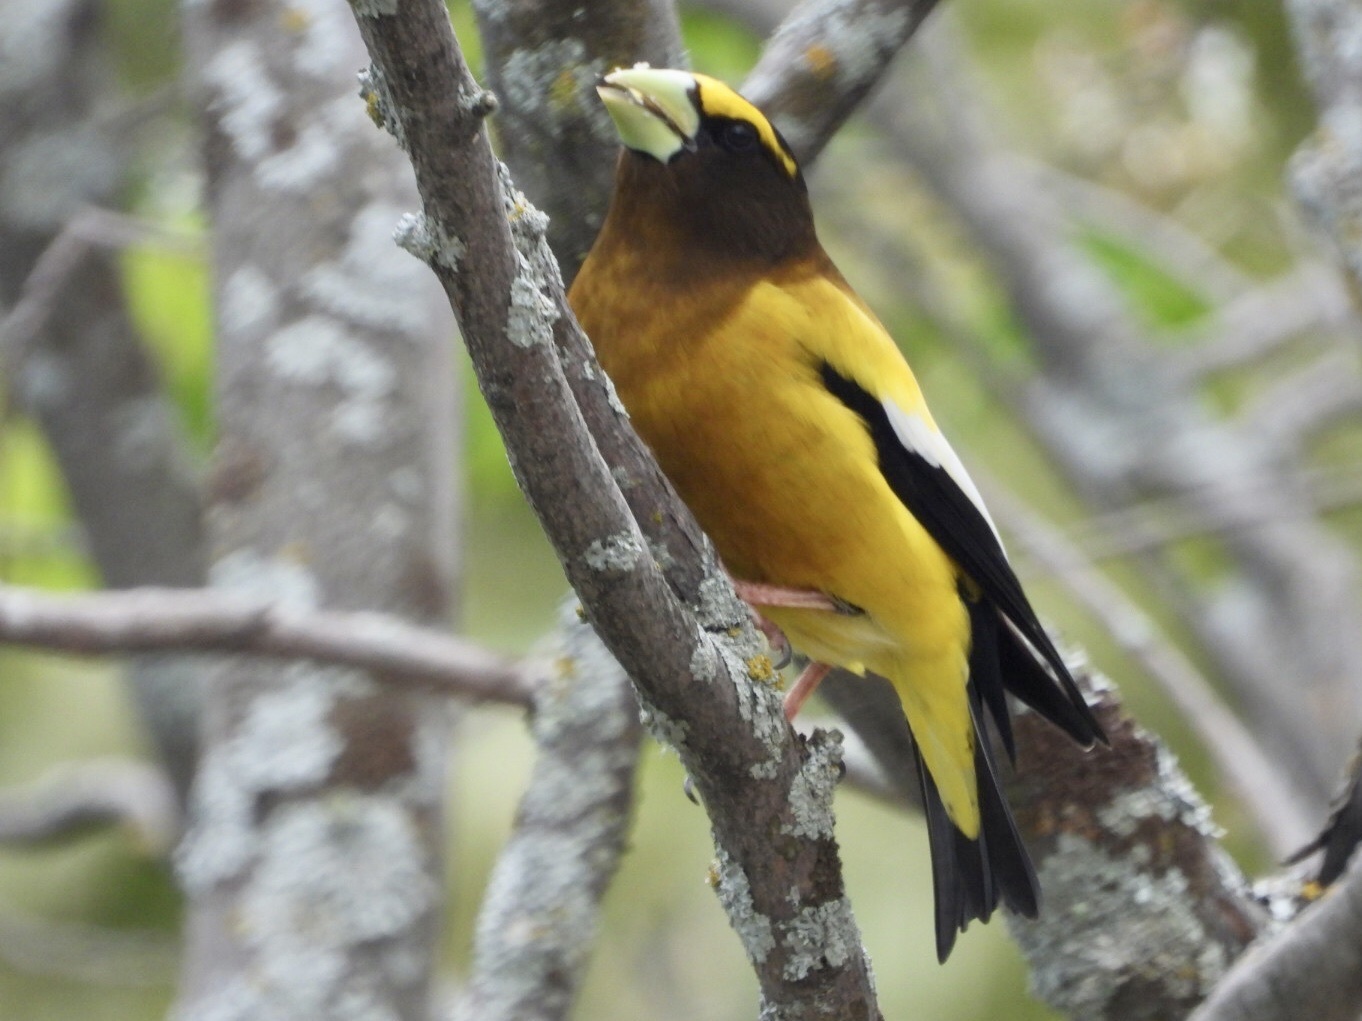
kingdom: Animalia
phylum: Chordata
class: Aves
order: Passeriformes
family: Fringillidae
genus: Hesperiphona
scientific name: Hesperiphona vespertina
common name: Evening grosbeak
